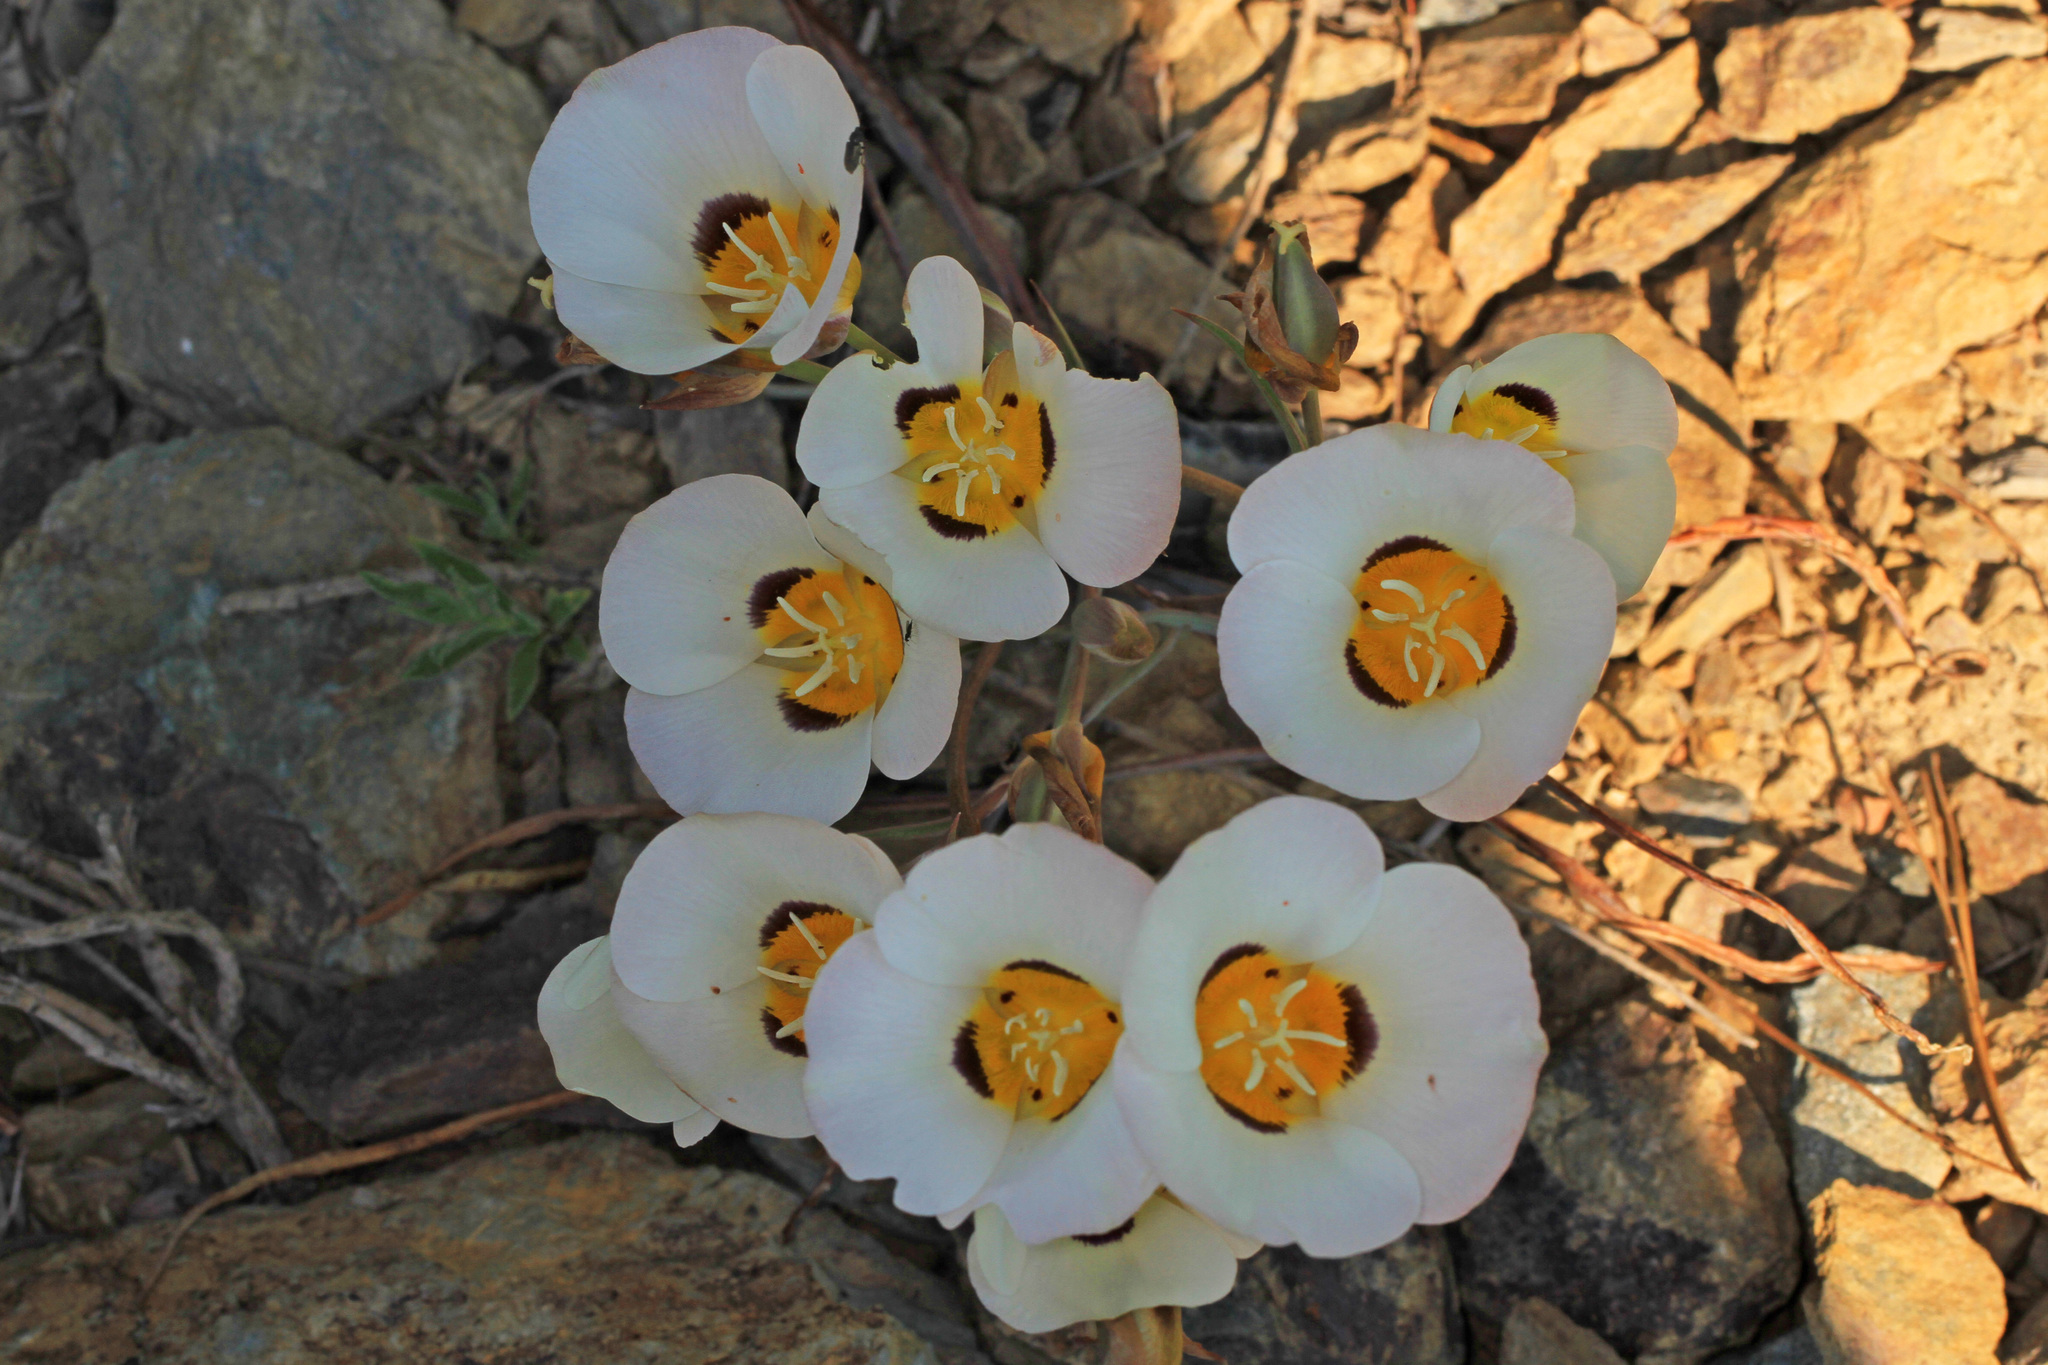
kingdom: Plantae
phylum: Tracheophyta
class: Liliopsida
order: Liliales
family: Liliaceae
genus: Calochortus
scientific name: Calochortus leichtlinii
